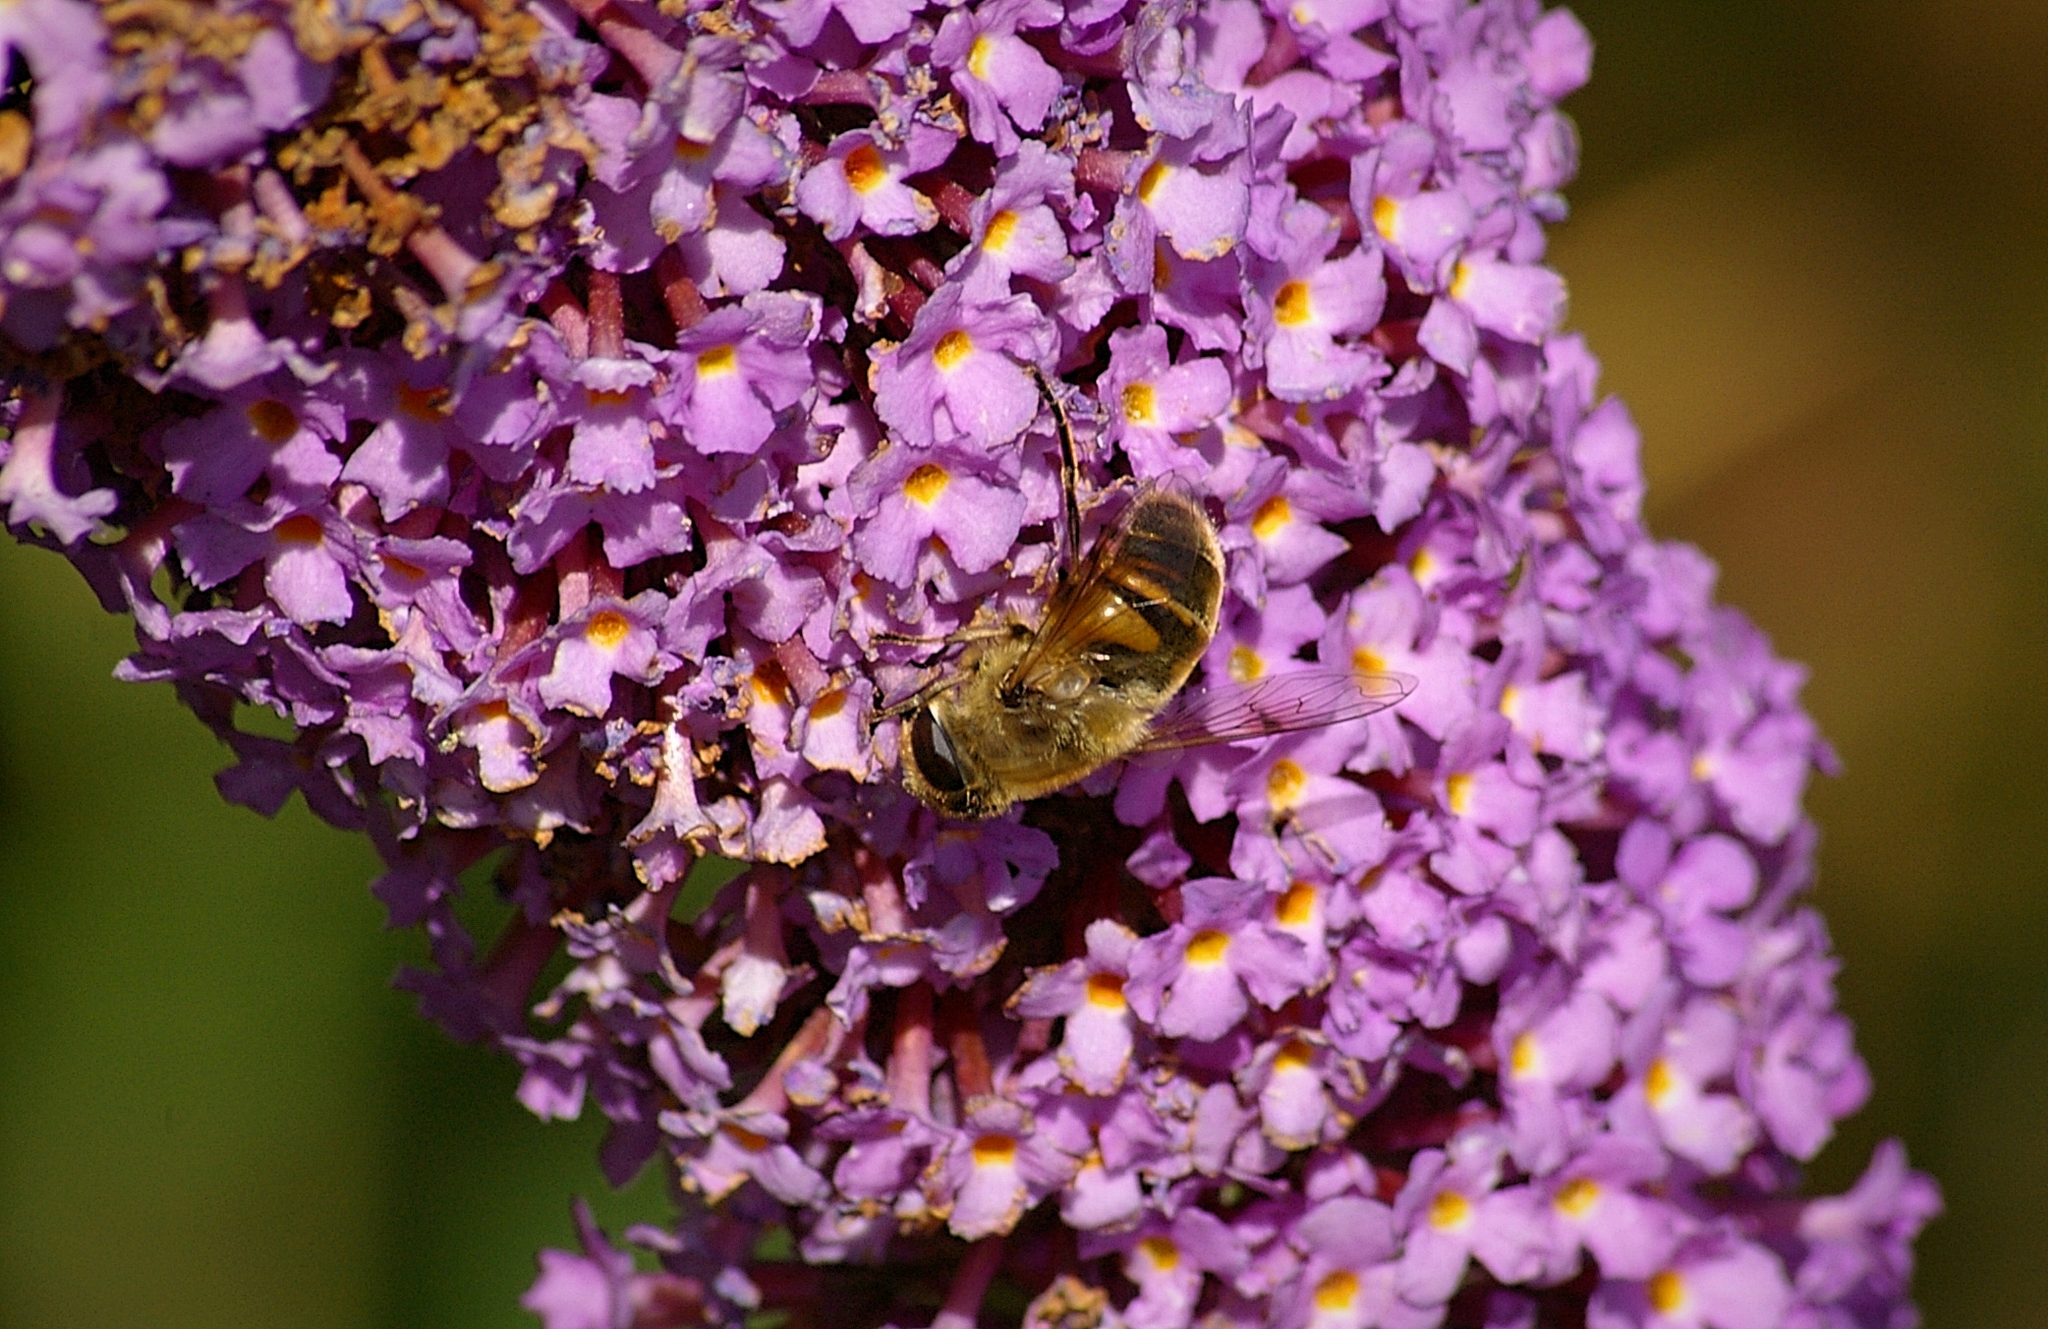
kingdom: Animalia
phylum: Arthropoda
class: Insecta
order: Diptera
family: Syrphidae
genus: Eristalis
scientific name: Eristalis tenax
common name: Drone fly
